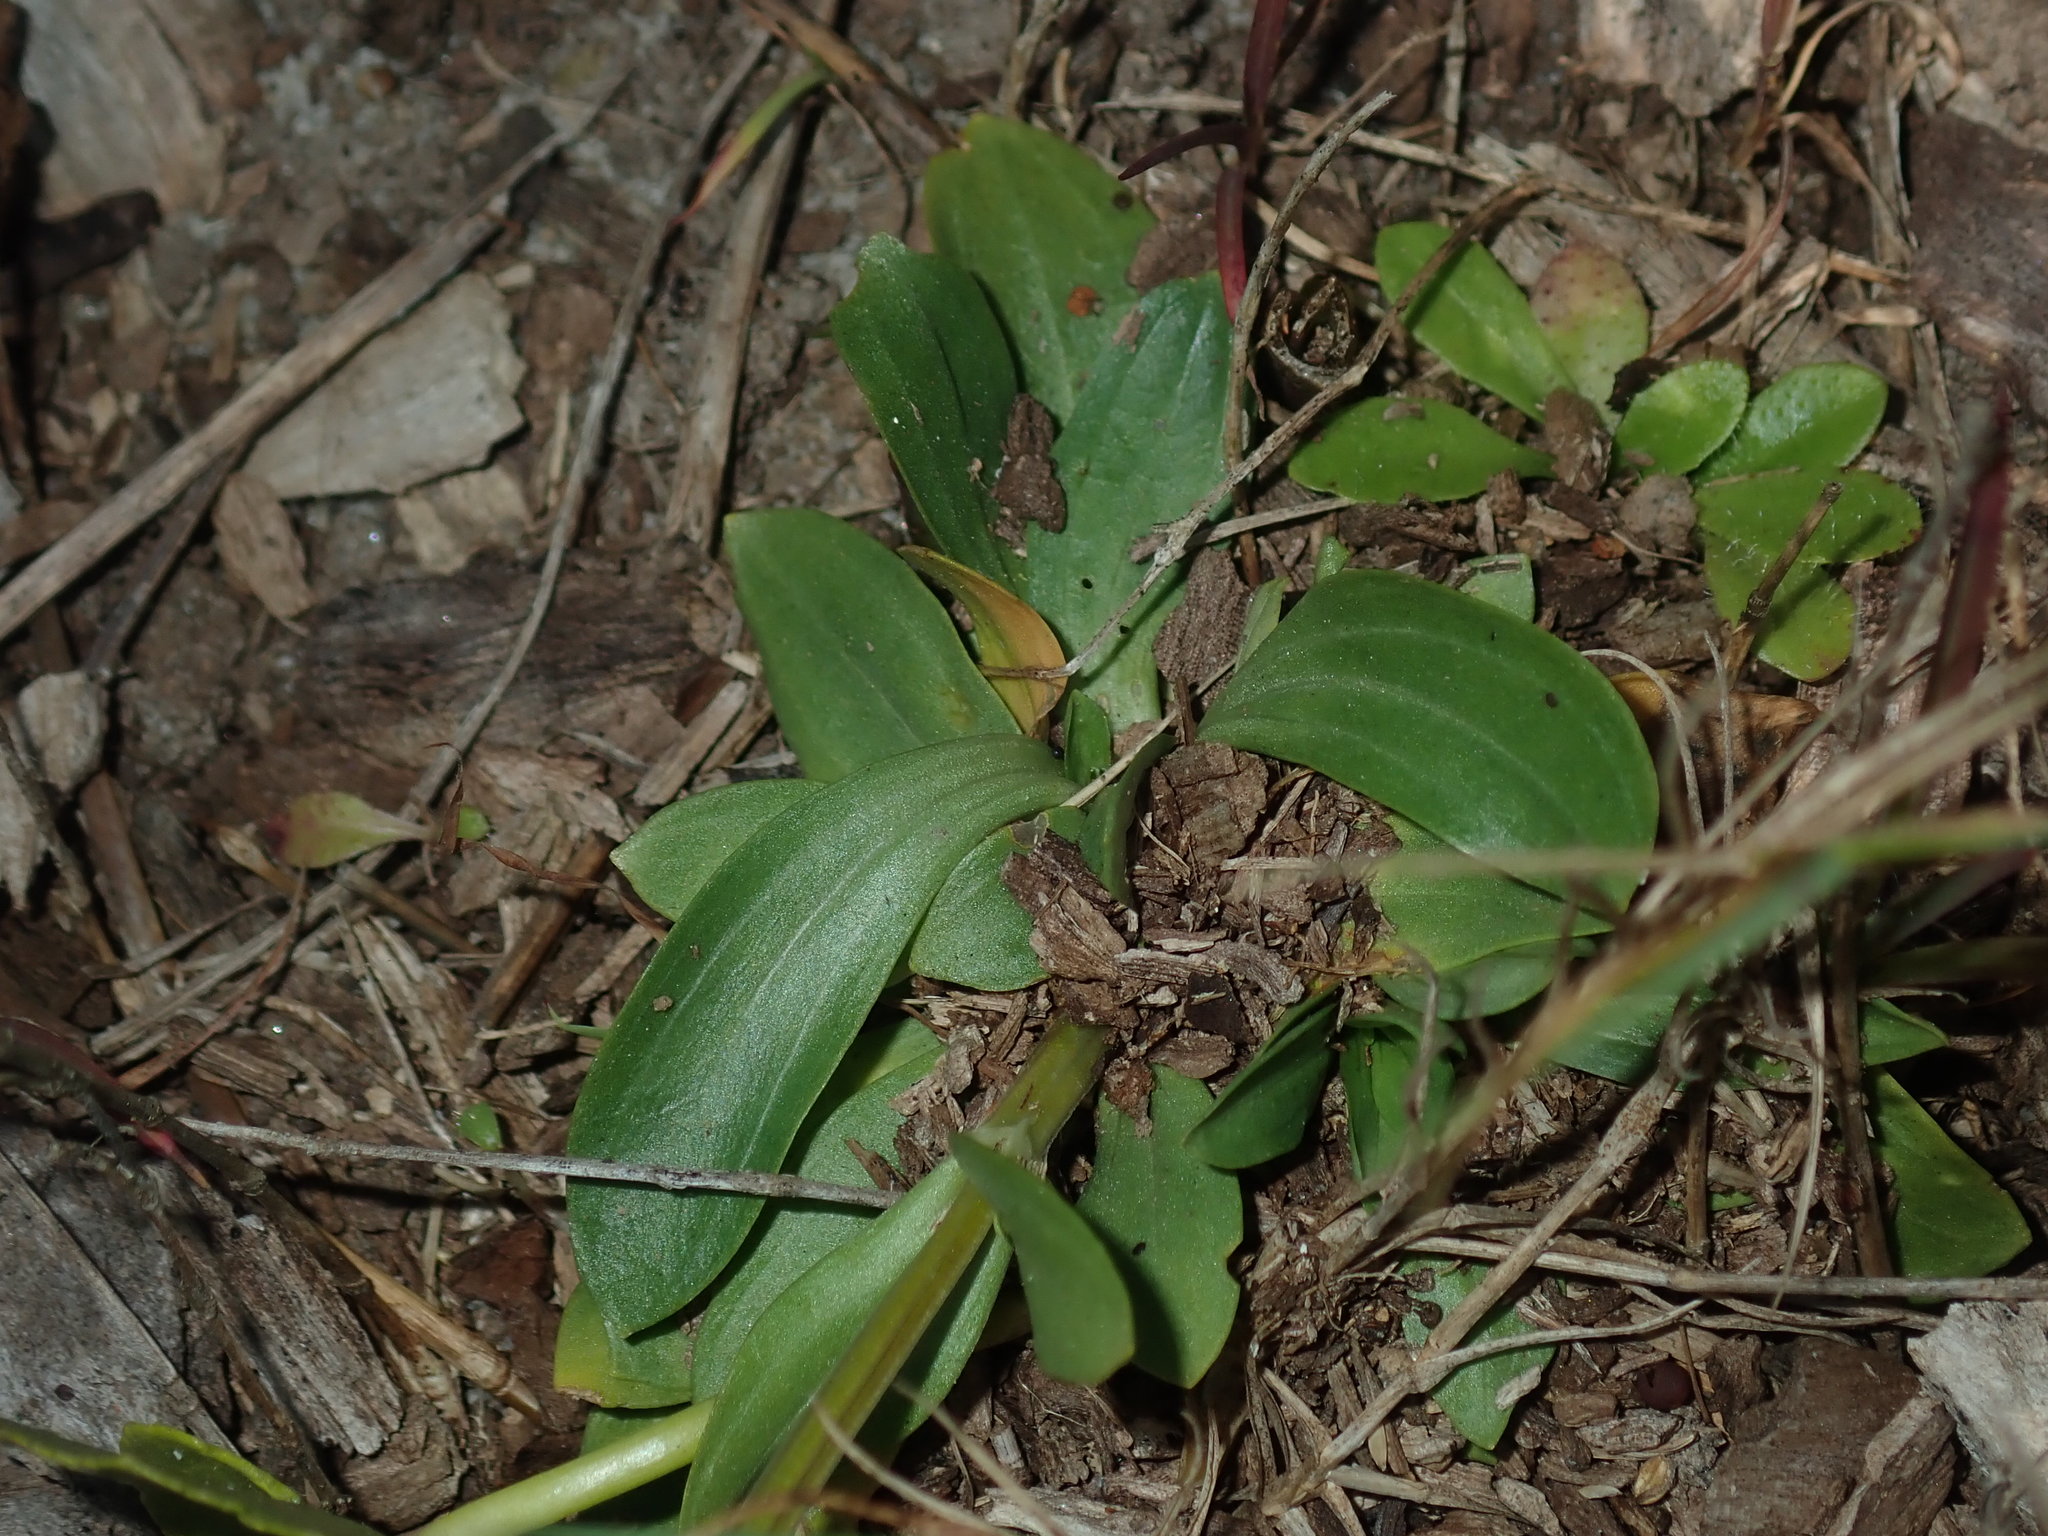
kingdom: Plantae
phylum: Tracheophyta
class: Magnoliopsida
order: Gentianales
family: Gentianaceae
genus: Centaurium
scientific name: Centaurium erythraea
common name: Common centaury
